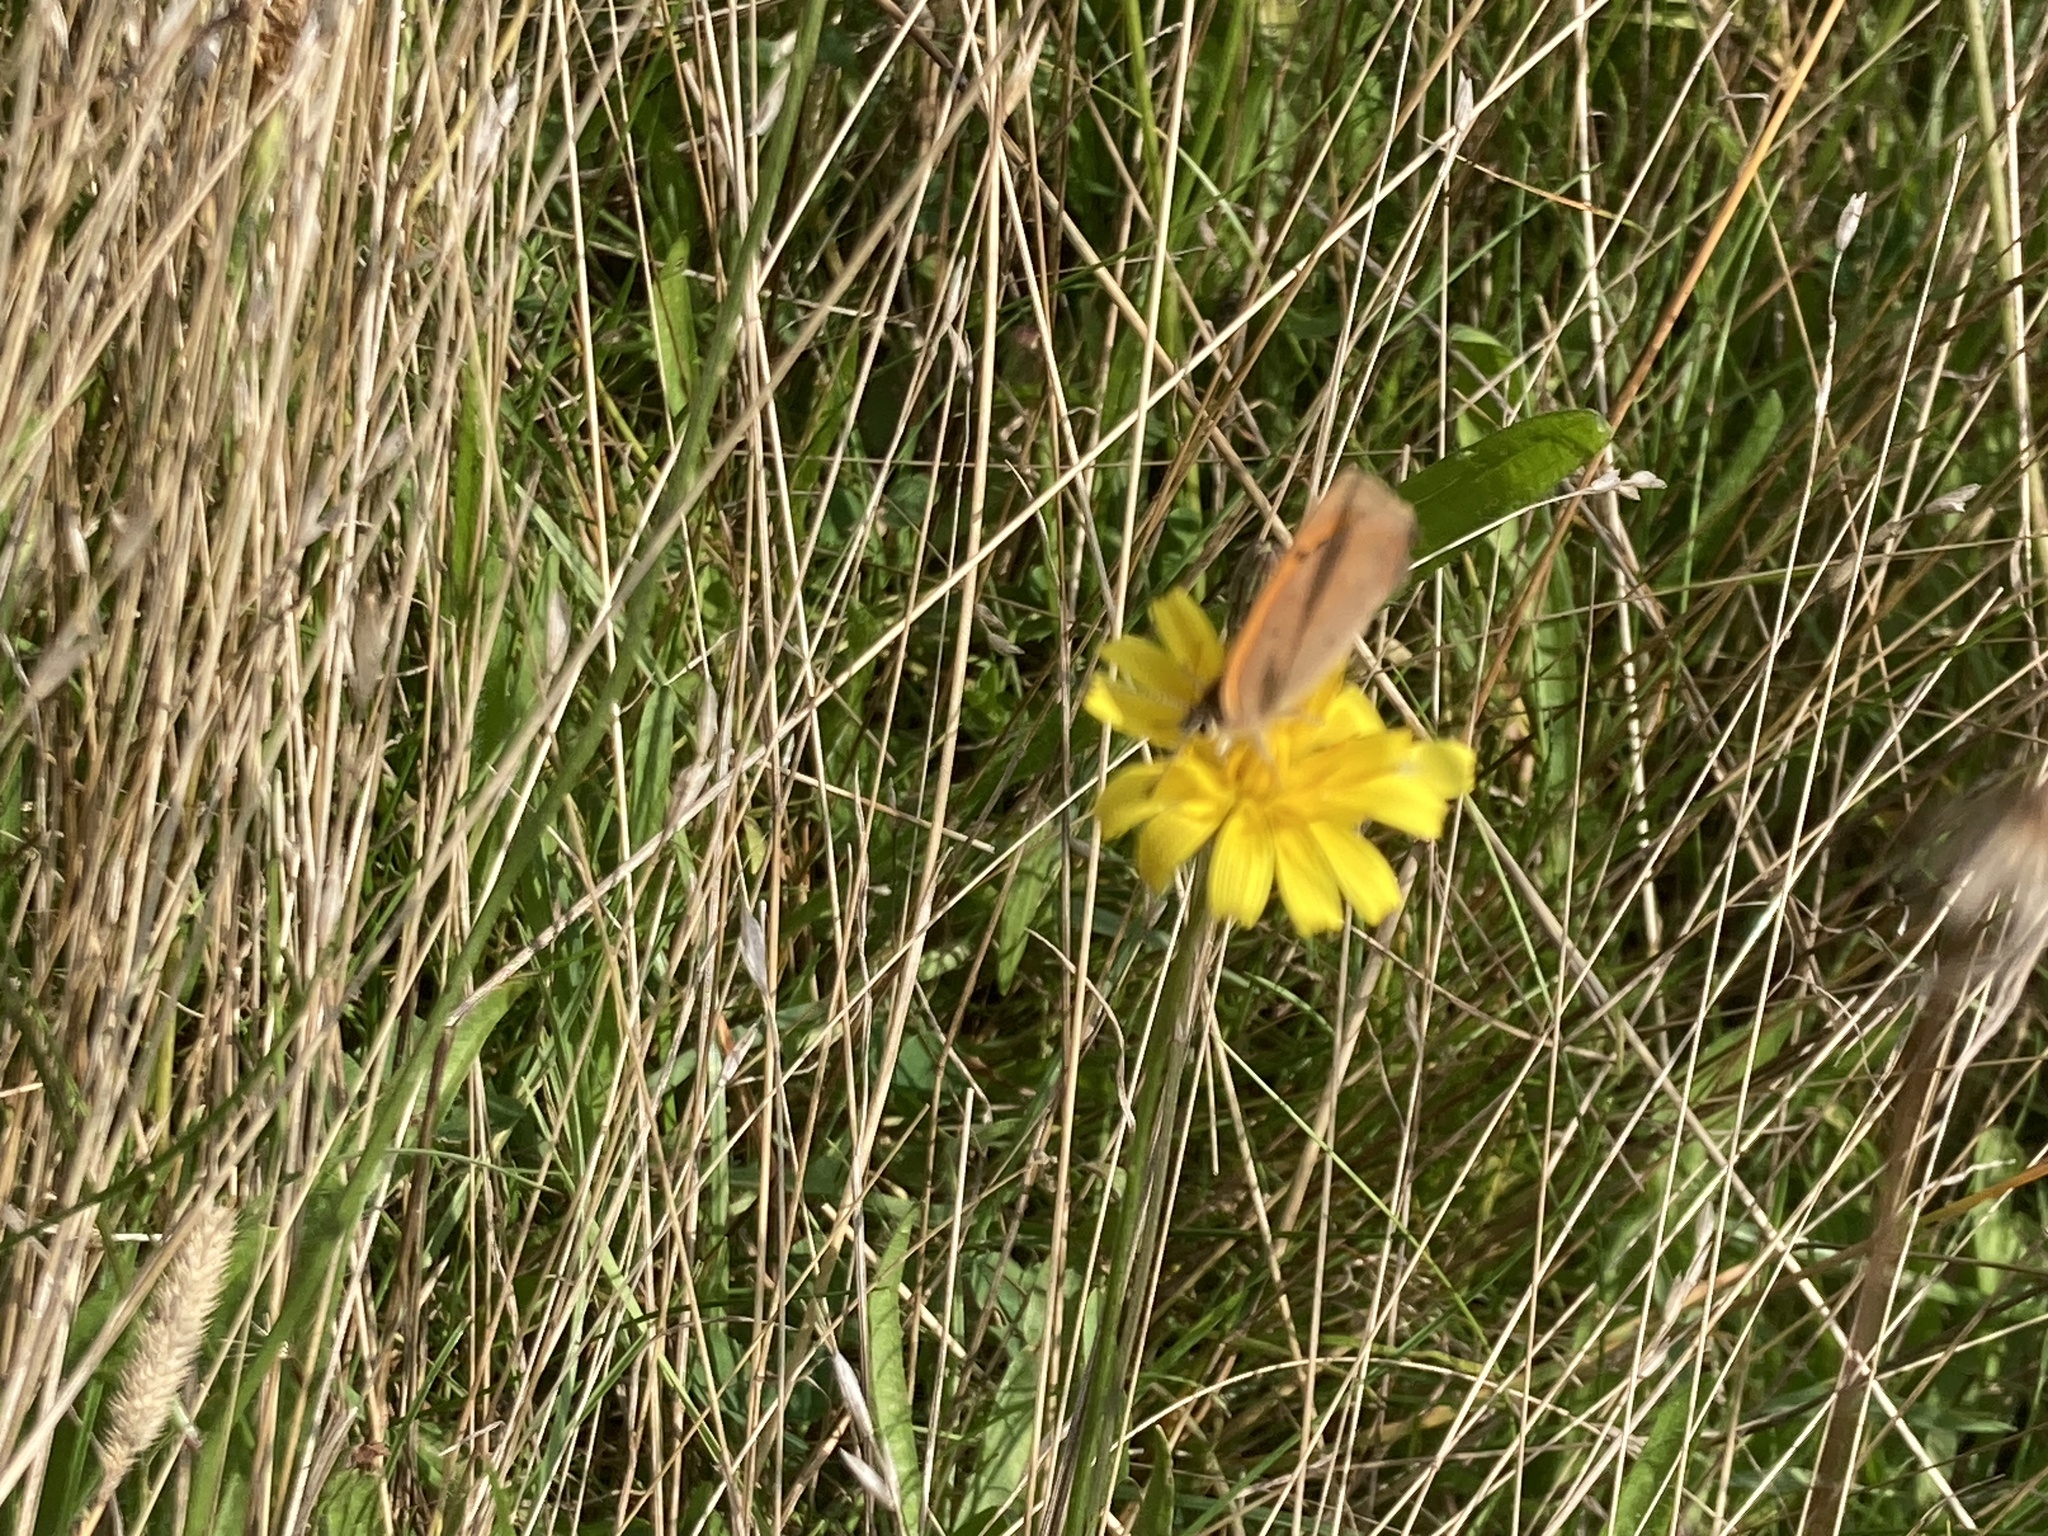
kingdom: Animalia
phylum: Arthropoda
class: Insecta
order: Lepidoptera
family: Lycaenidae
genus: Lycaena
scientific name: Lycaena phlaeas
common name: Small copper
